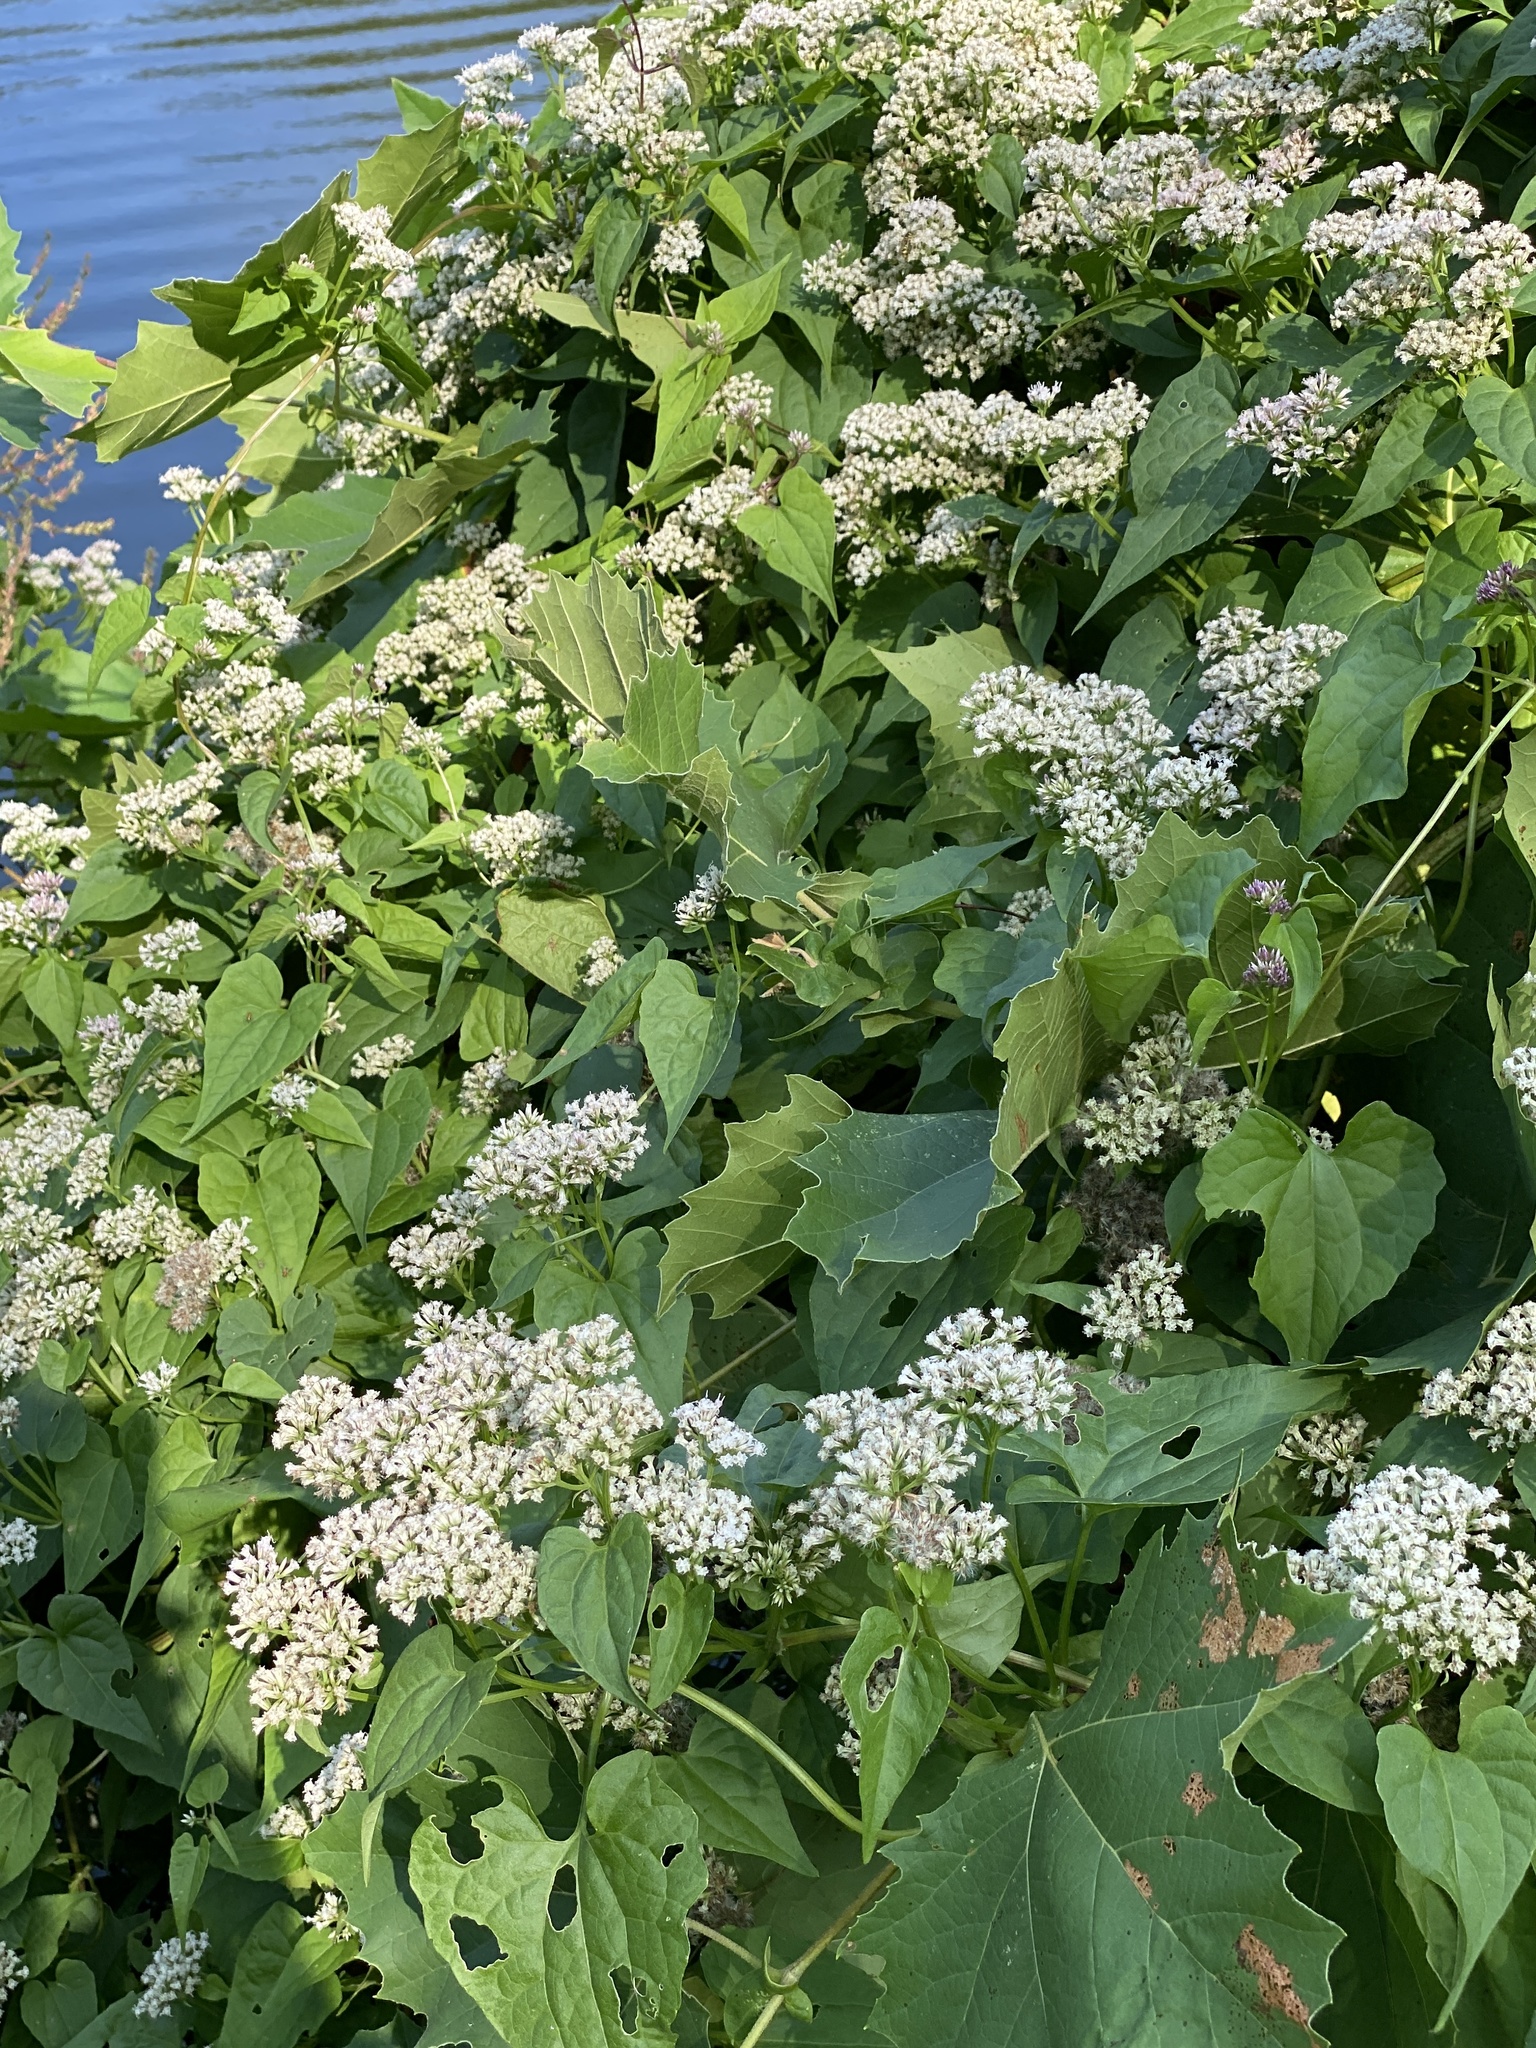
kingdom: Plantae
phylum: Tracheophyta
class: Magnoliopsida
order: Asterales
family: Asteraceae
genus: Mikania
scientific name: Mikania scandens
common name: Climbing hempvine
